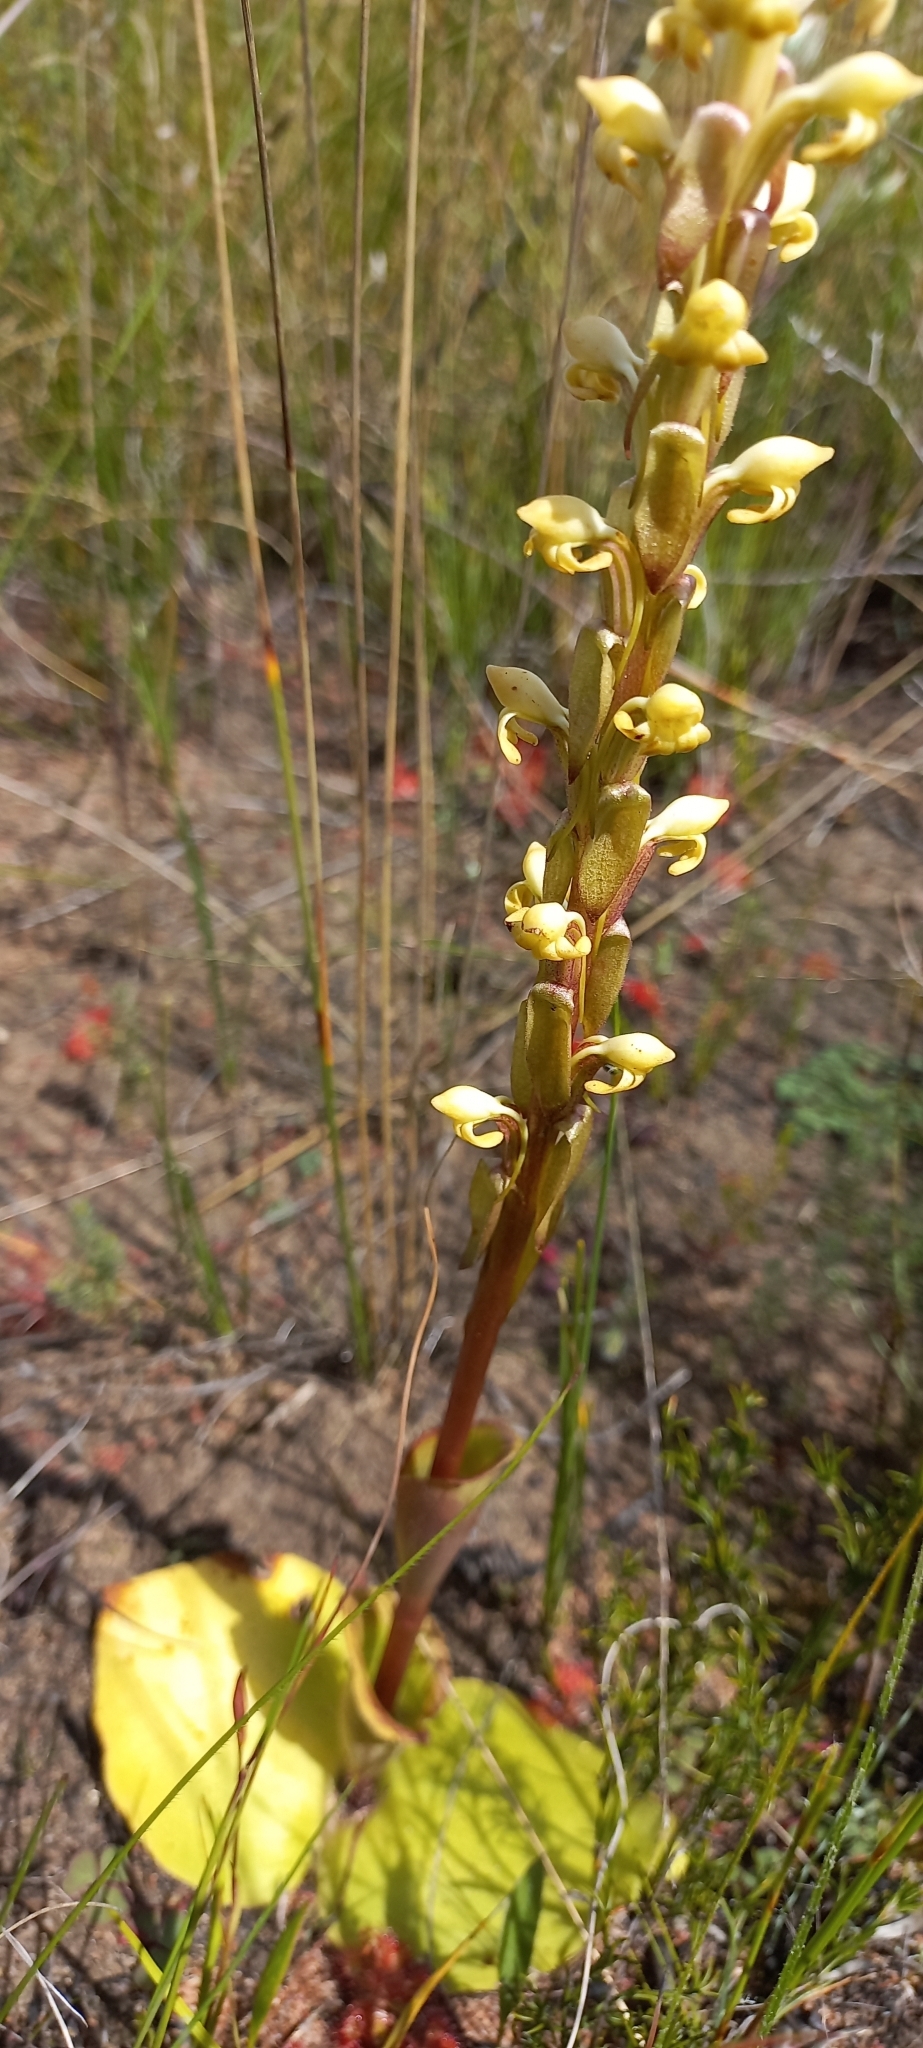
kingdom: Plantae
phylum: Tracheophyta
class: Liliopsida
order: Asparagales
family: Orchidaceae
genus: Satyrium
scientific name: Satyrium bicorne
